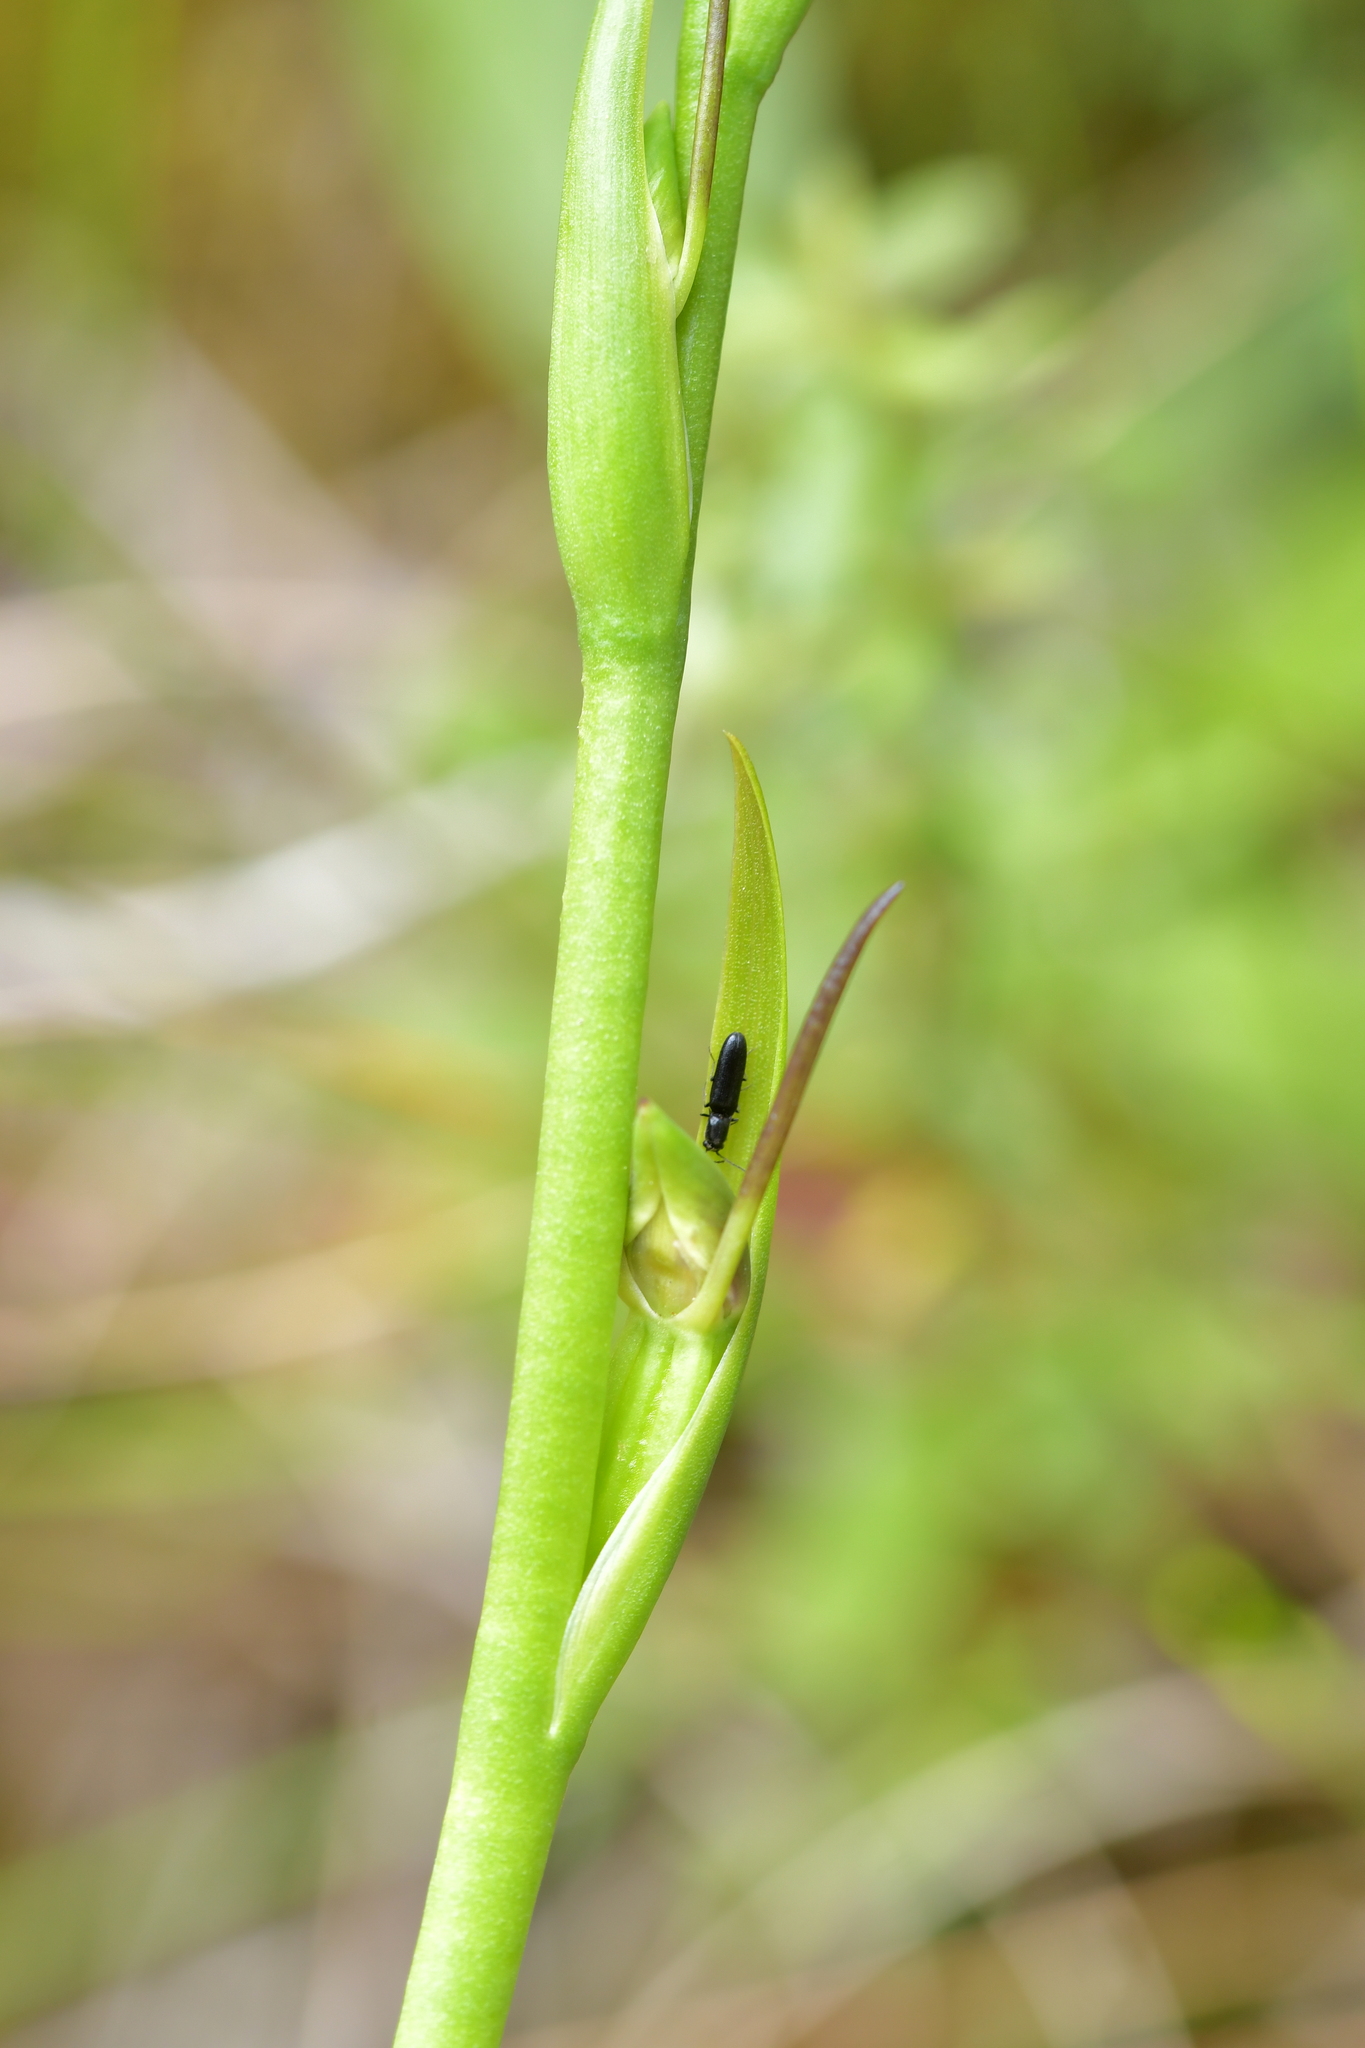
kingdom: Plantae
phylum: Tracheophyta
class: Liliopsida
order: Asparagales
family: Orchidaceae
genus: Orthoceras
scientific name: Orthoceras novae-zeelandiae
